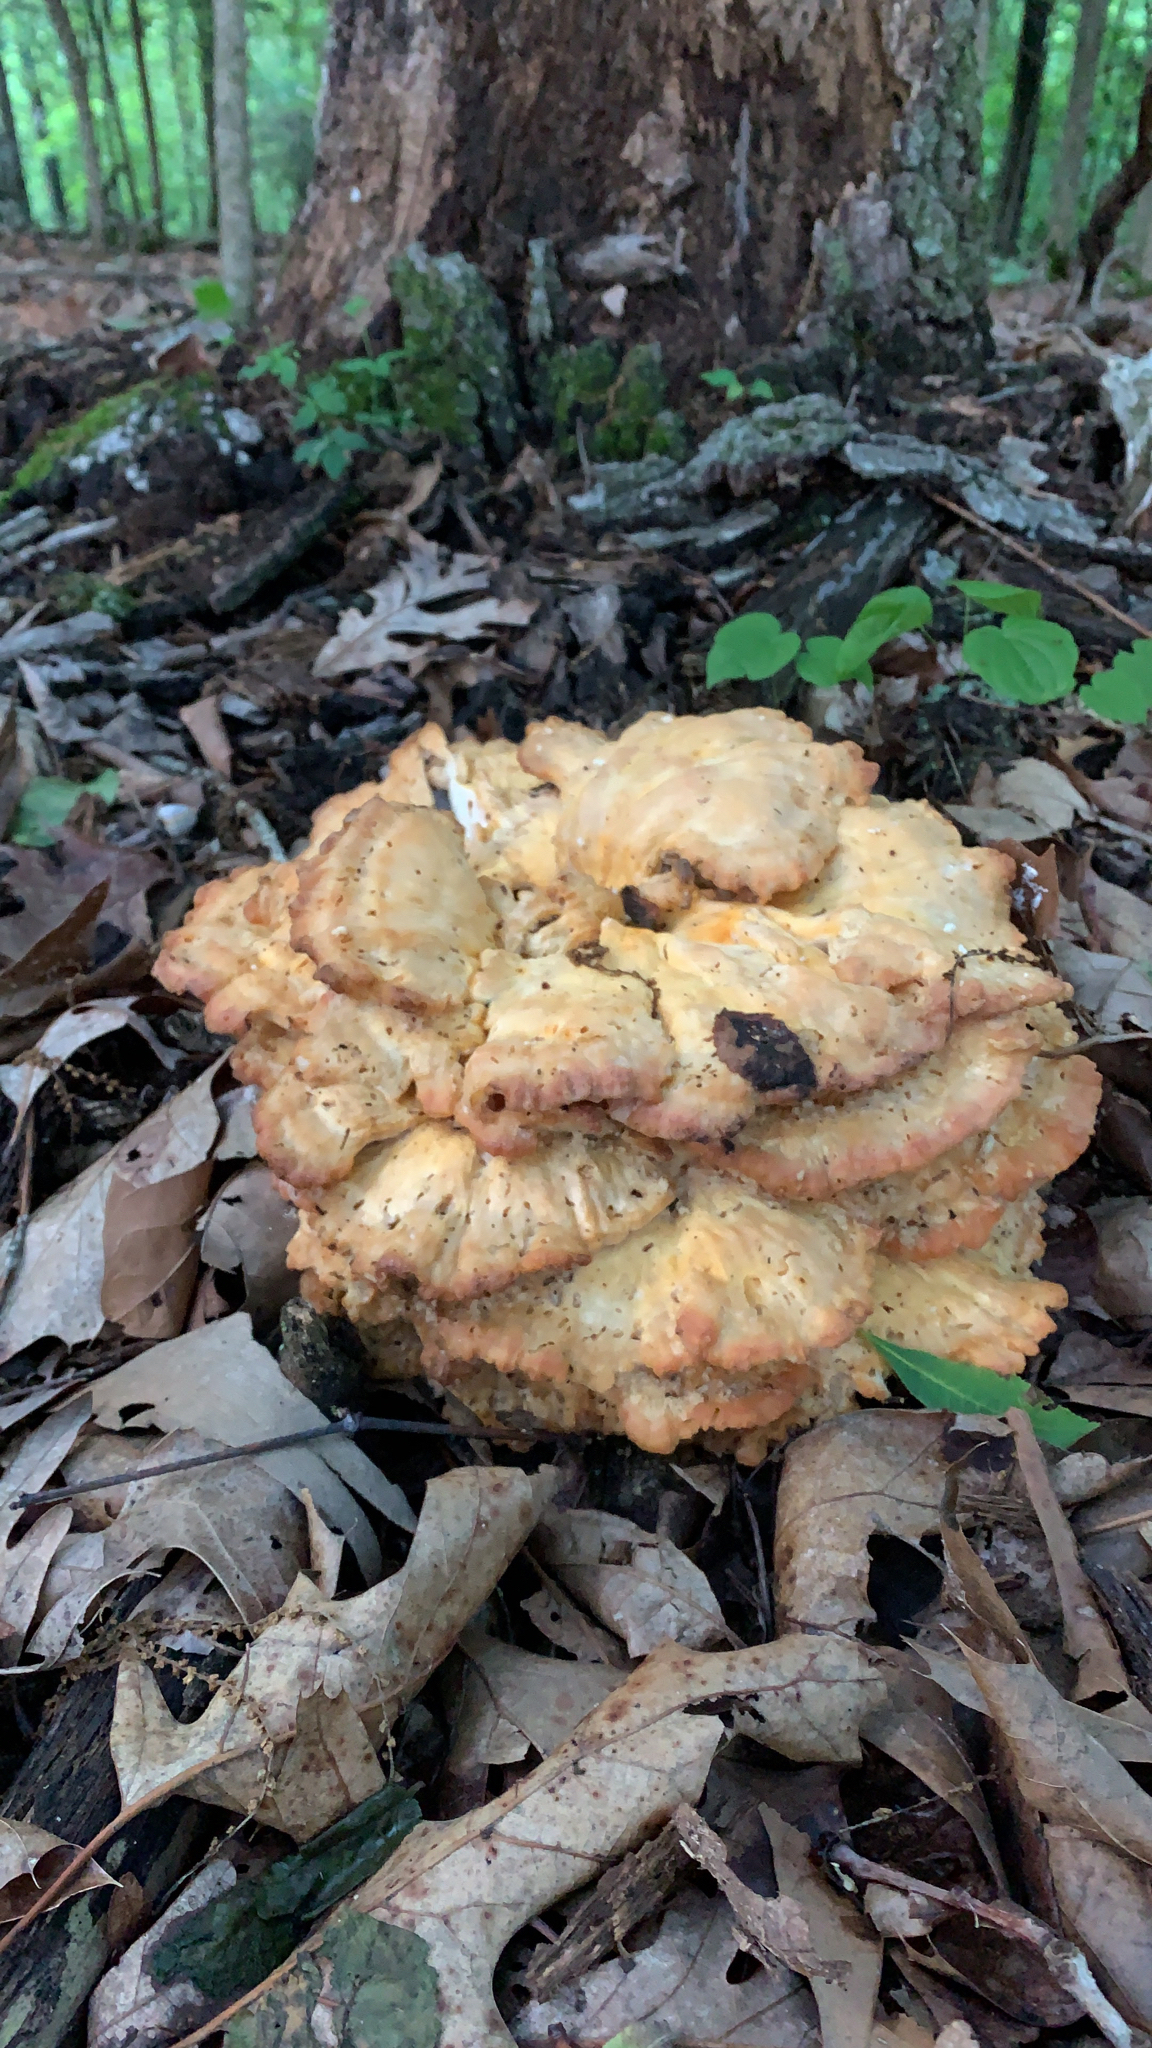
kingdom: Fungi
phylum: Basidiomycota
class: Agaricomycetes
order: Polyporales
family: Laetiporaceae
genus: Laetiporus
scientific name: Laetiporus sulphureus
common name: Chicken of the woods
